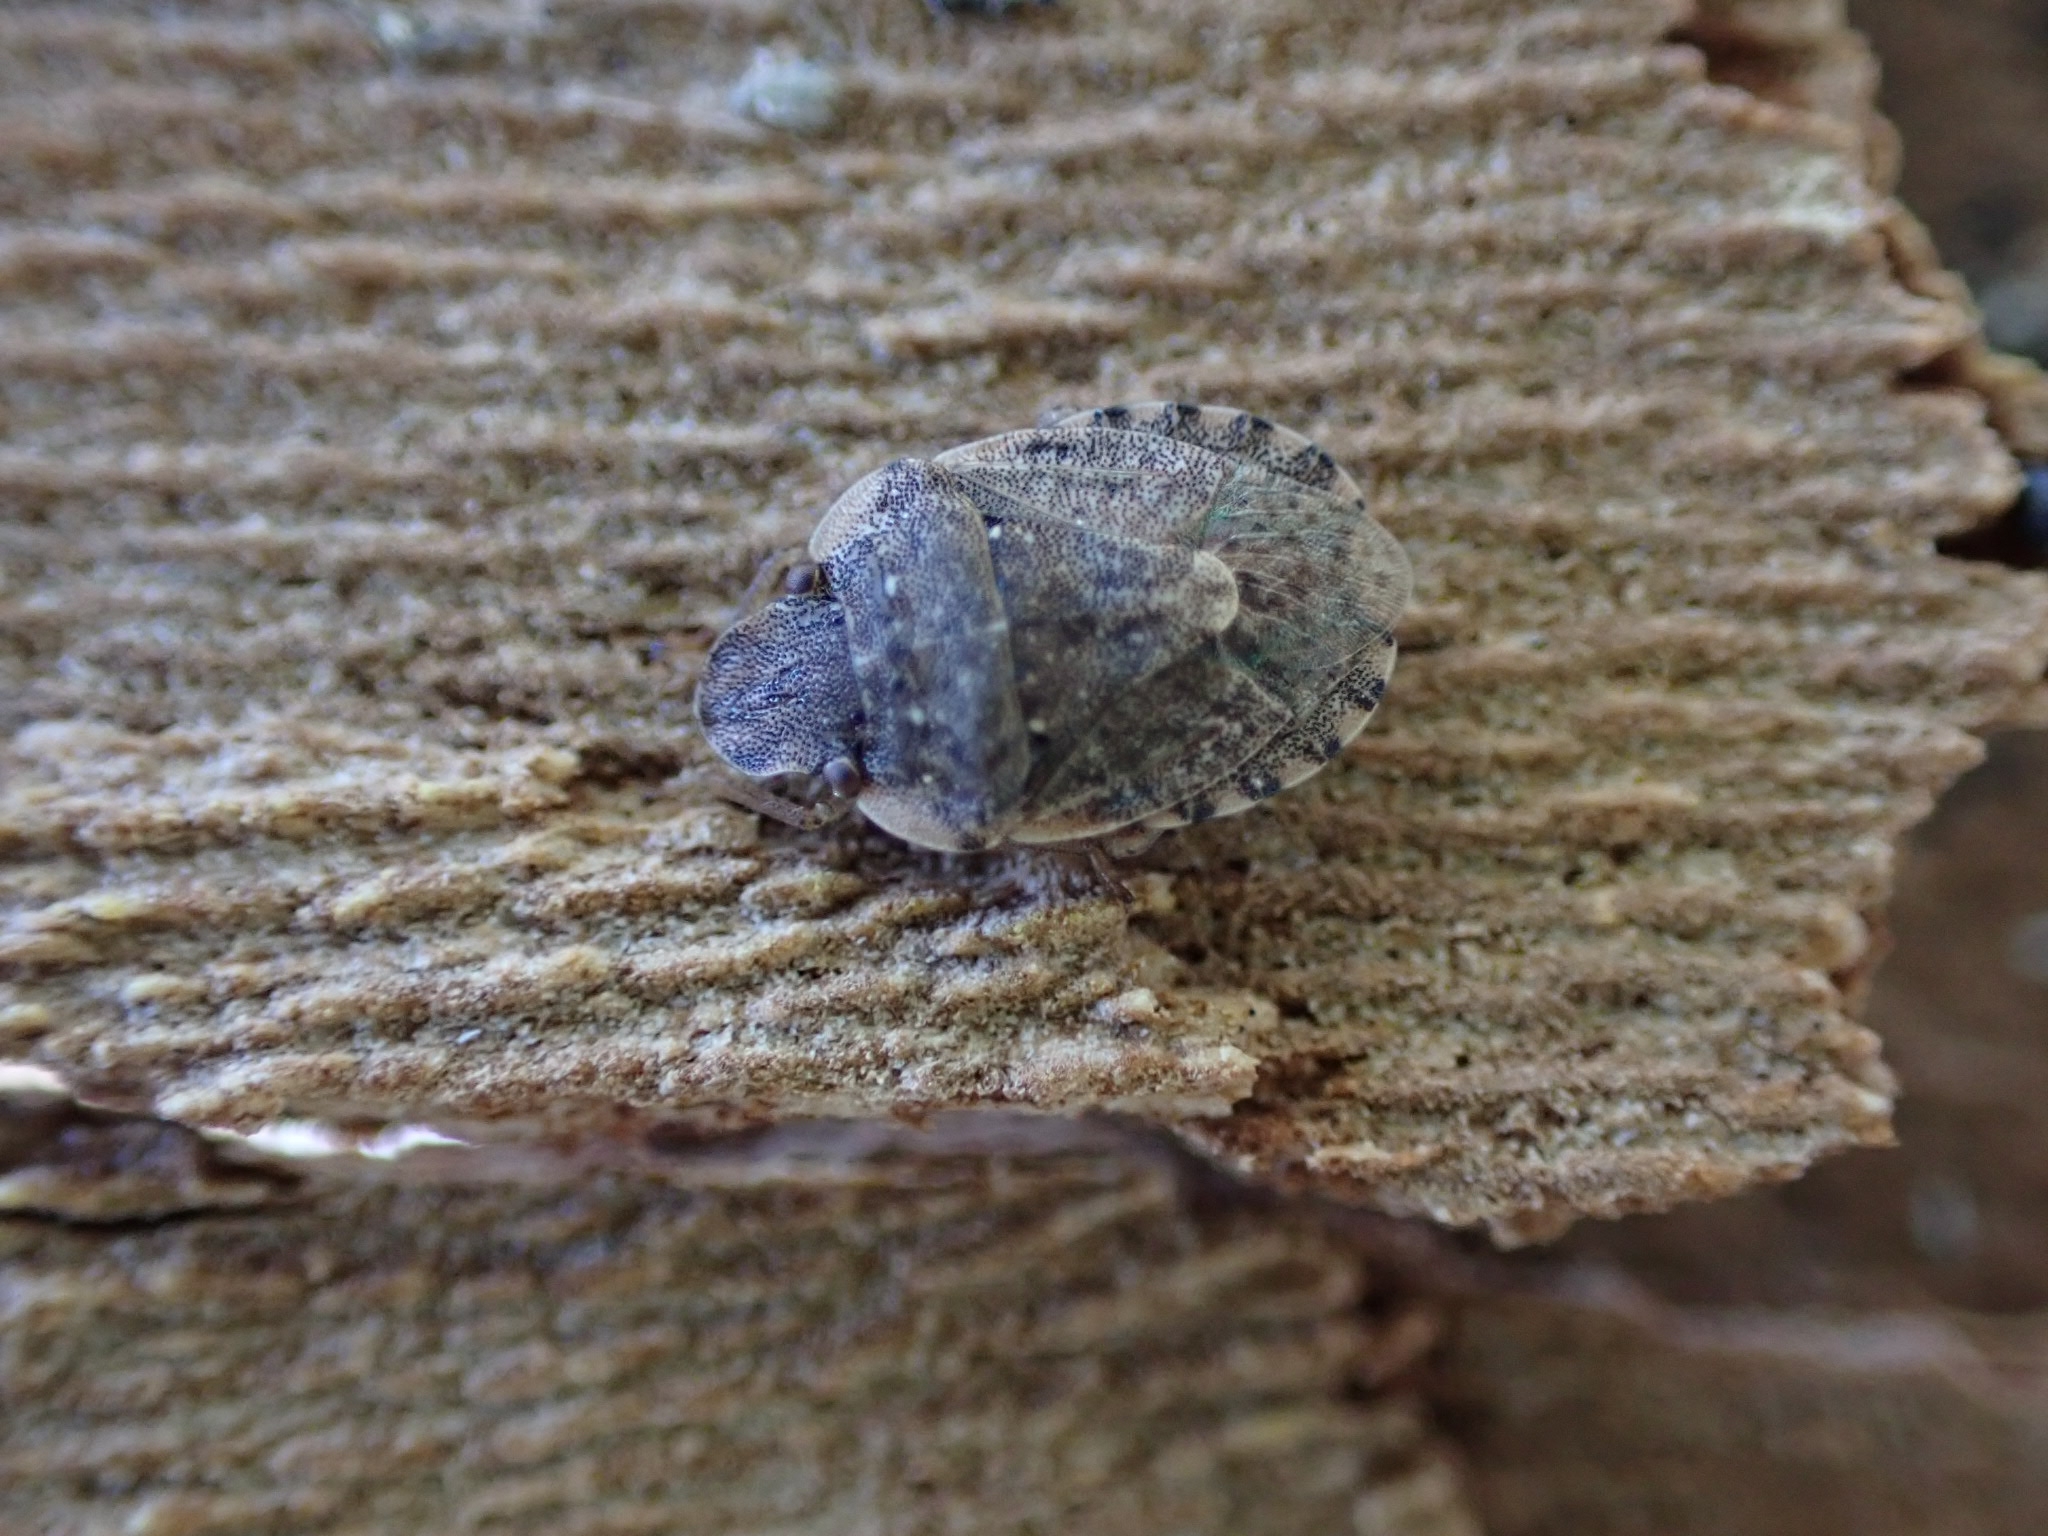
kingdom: Animalia
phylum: Arthropoda
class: Insecta
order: Hemiptera
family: Pentatomidae
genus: Sciocoris
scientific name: Sciocoris sideritidis
